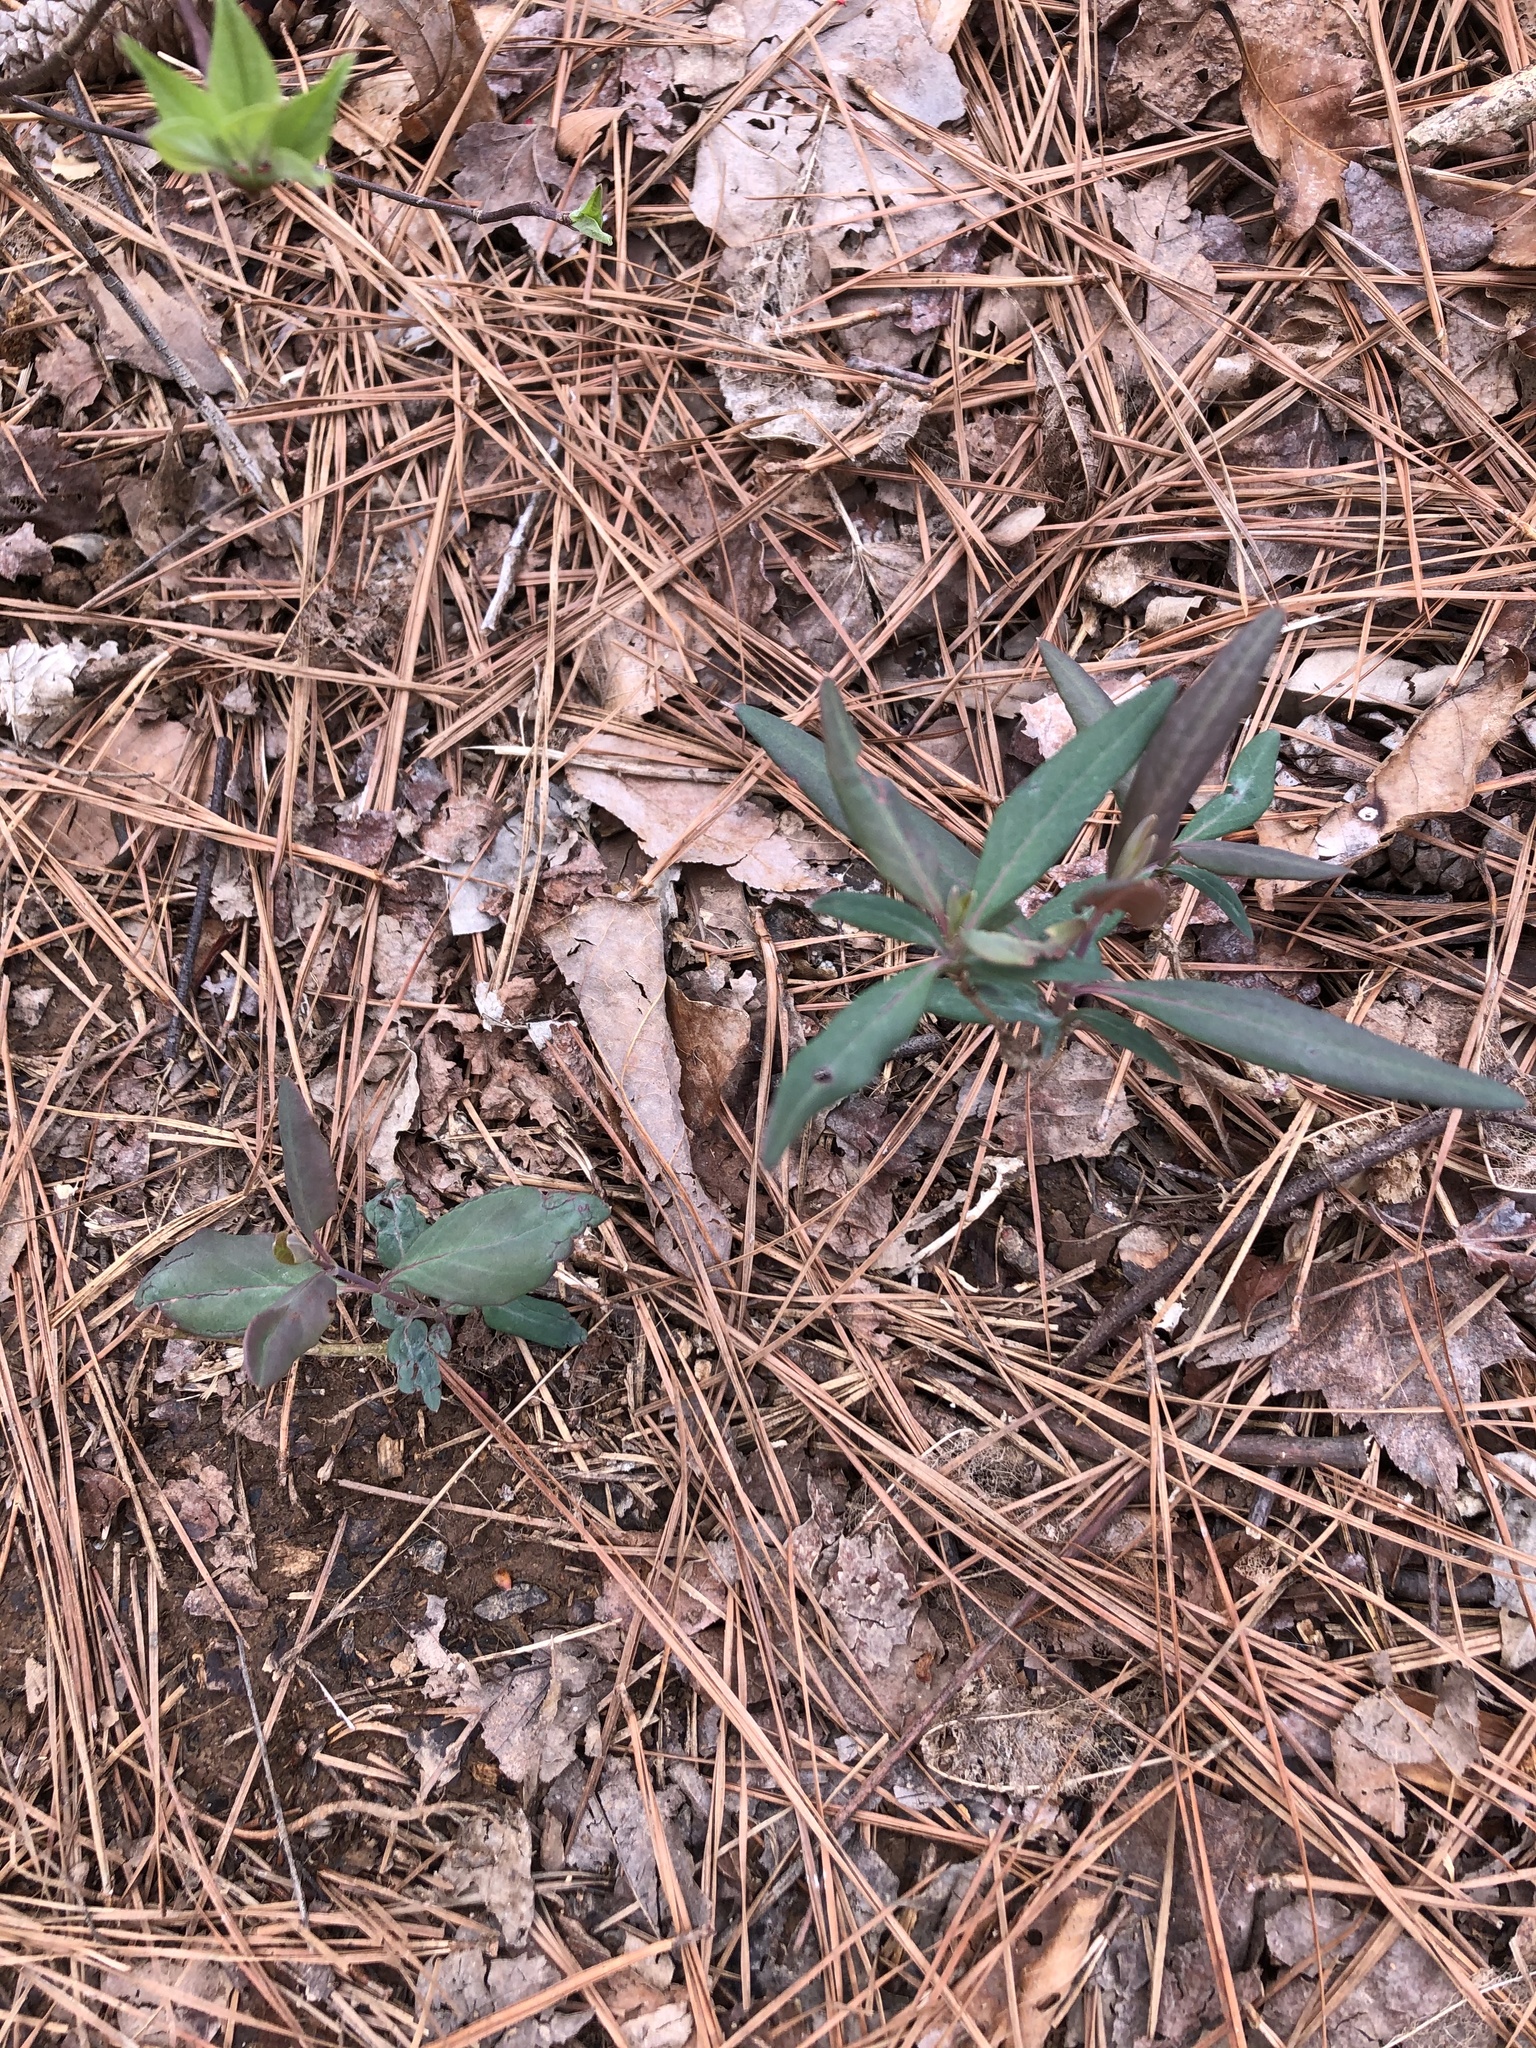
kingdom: Plantae
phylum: Tracheophyta
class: Magnoliopsida
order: Dipsacales
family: Caprifoliaceae
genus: Lonicera
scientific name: Lonicera sempervirens
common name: Coral honeysuckle
